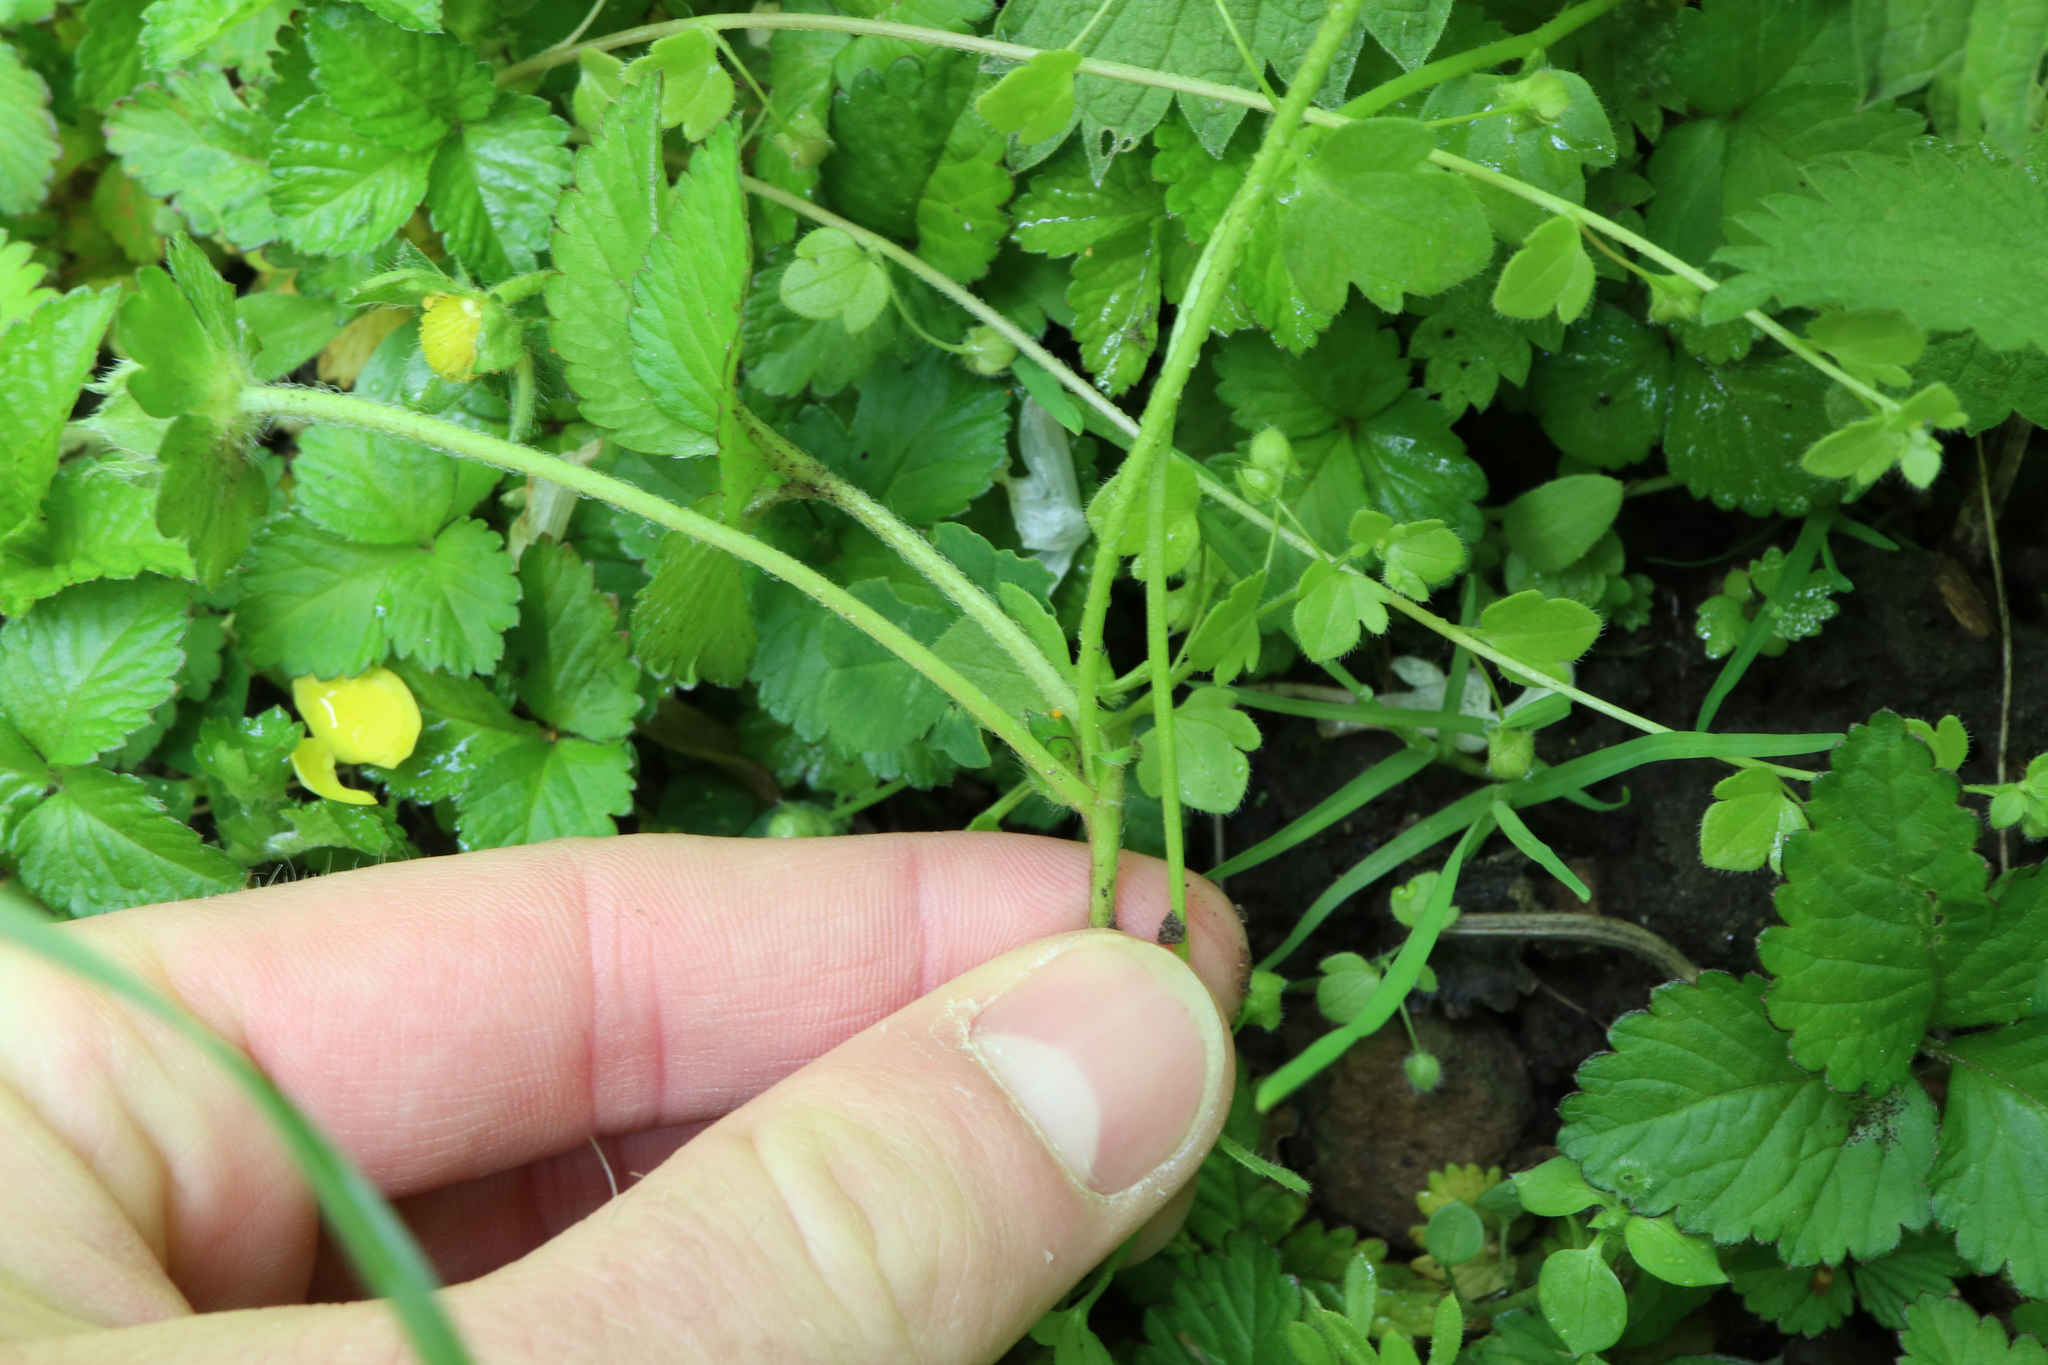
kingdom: Plantae
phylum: Tracheophyta
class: Magnoliopsida
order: Rosales
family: Rosaceae
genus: Potentilla
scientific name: Potentilla indica
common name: Yellow-flowered strawberry
